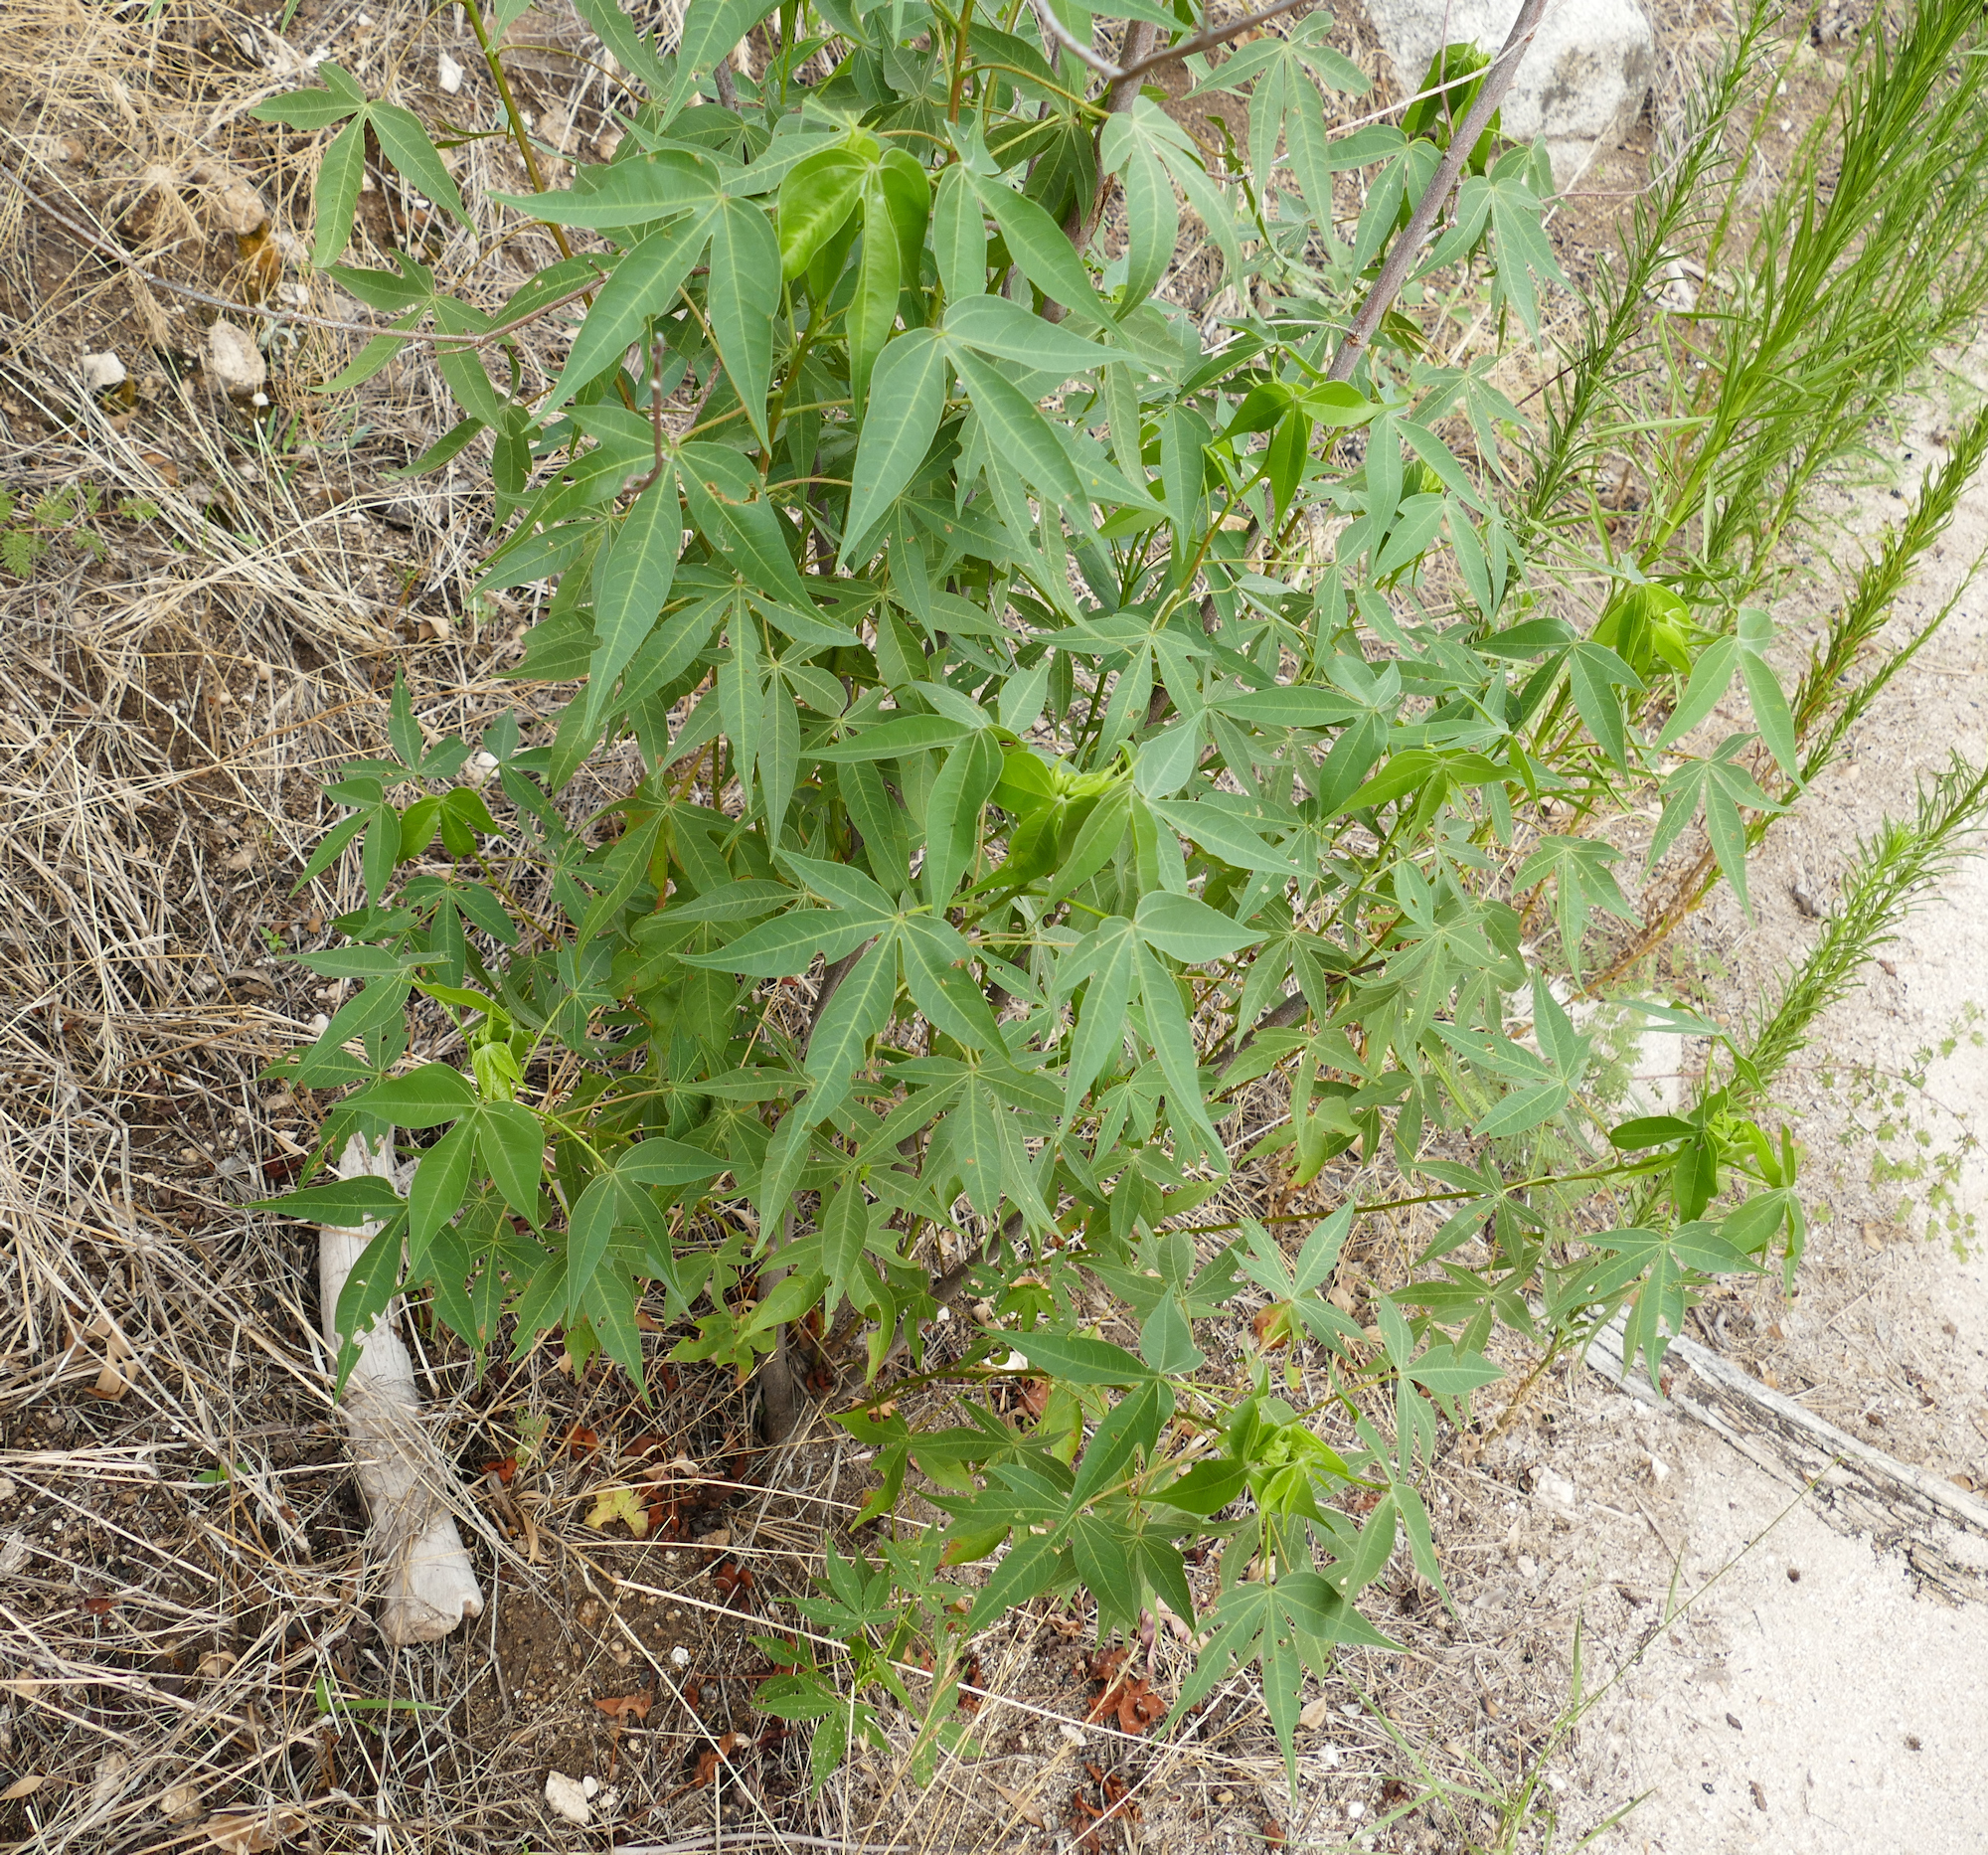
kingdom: Plantae
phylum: Tracheophyta
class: Magnoliopsida
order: Malvales
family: Malvaceae
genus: Gossypium
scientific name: Gossypium thurberi
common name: Desert cotton
